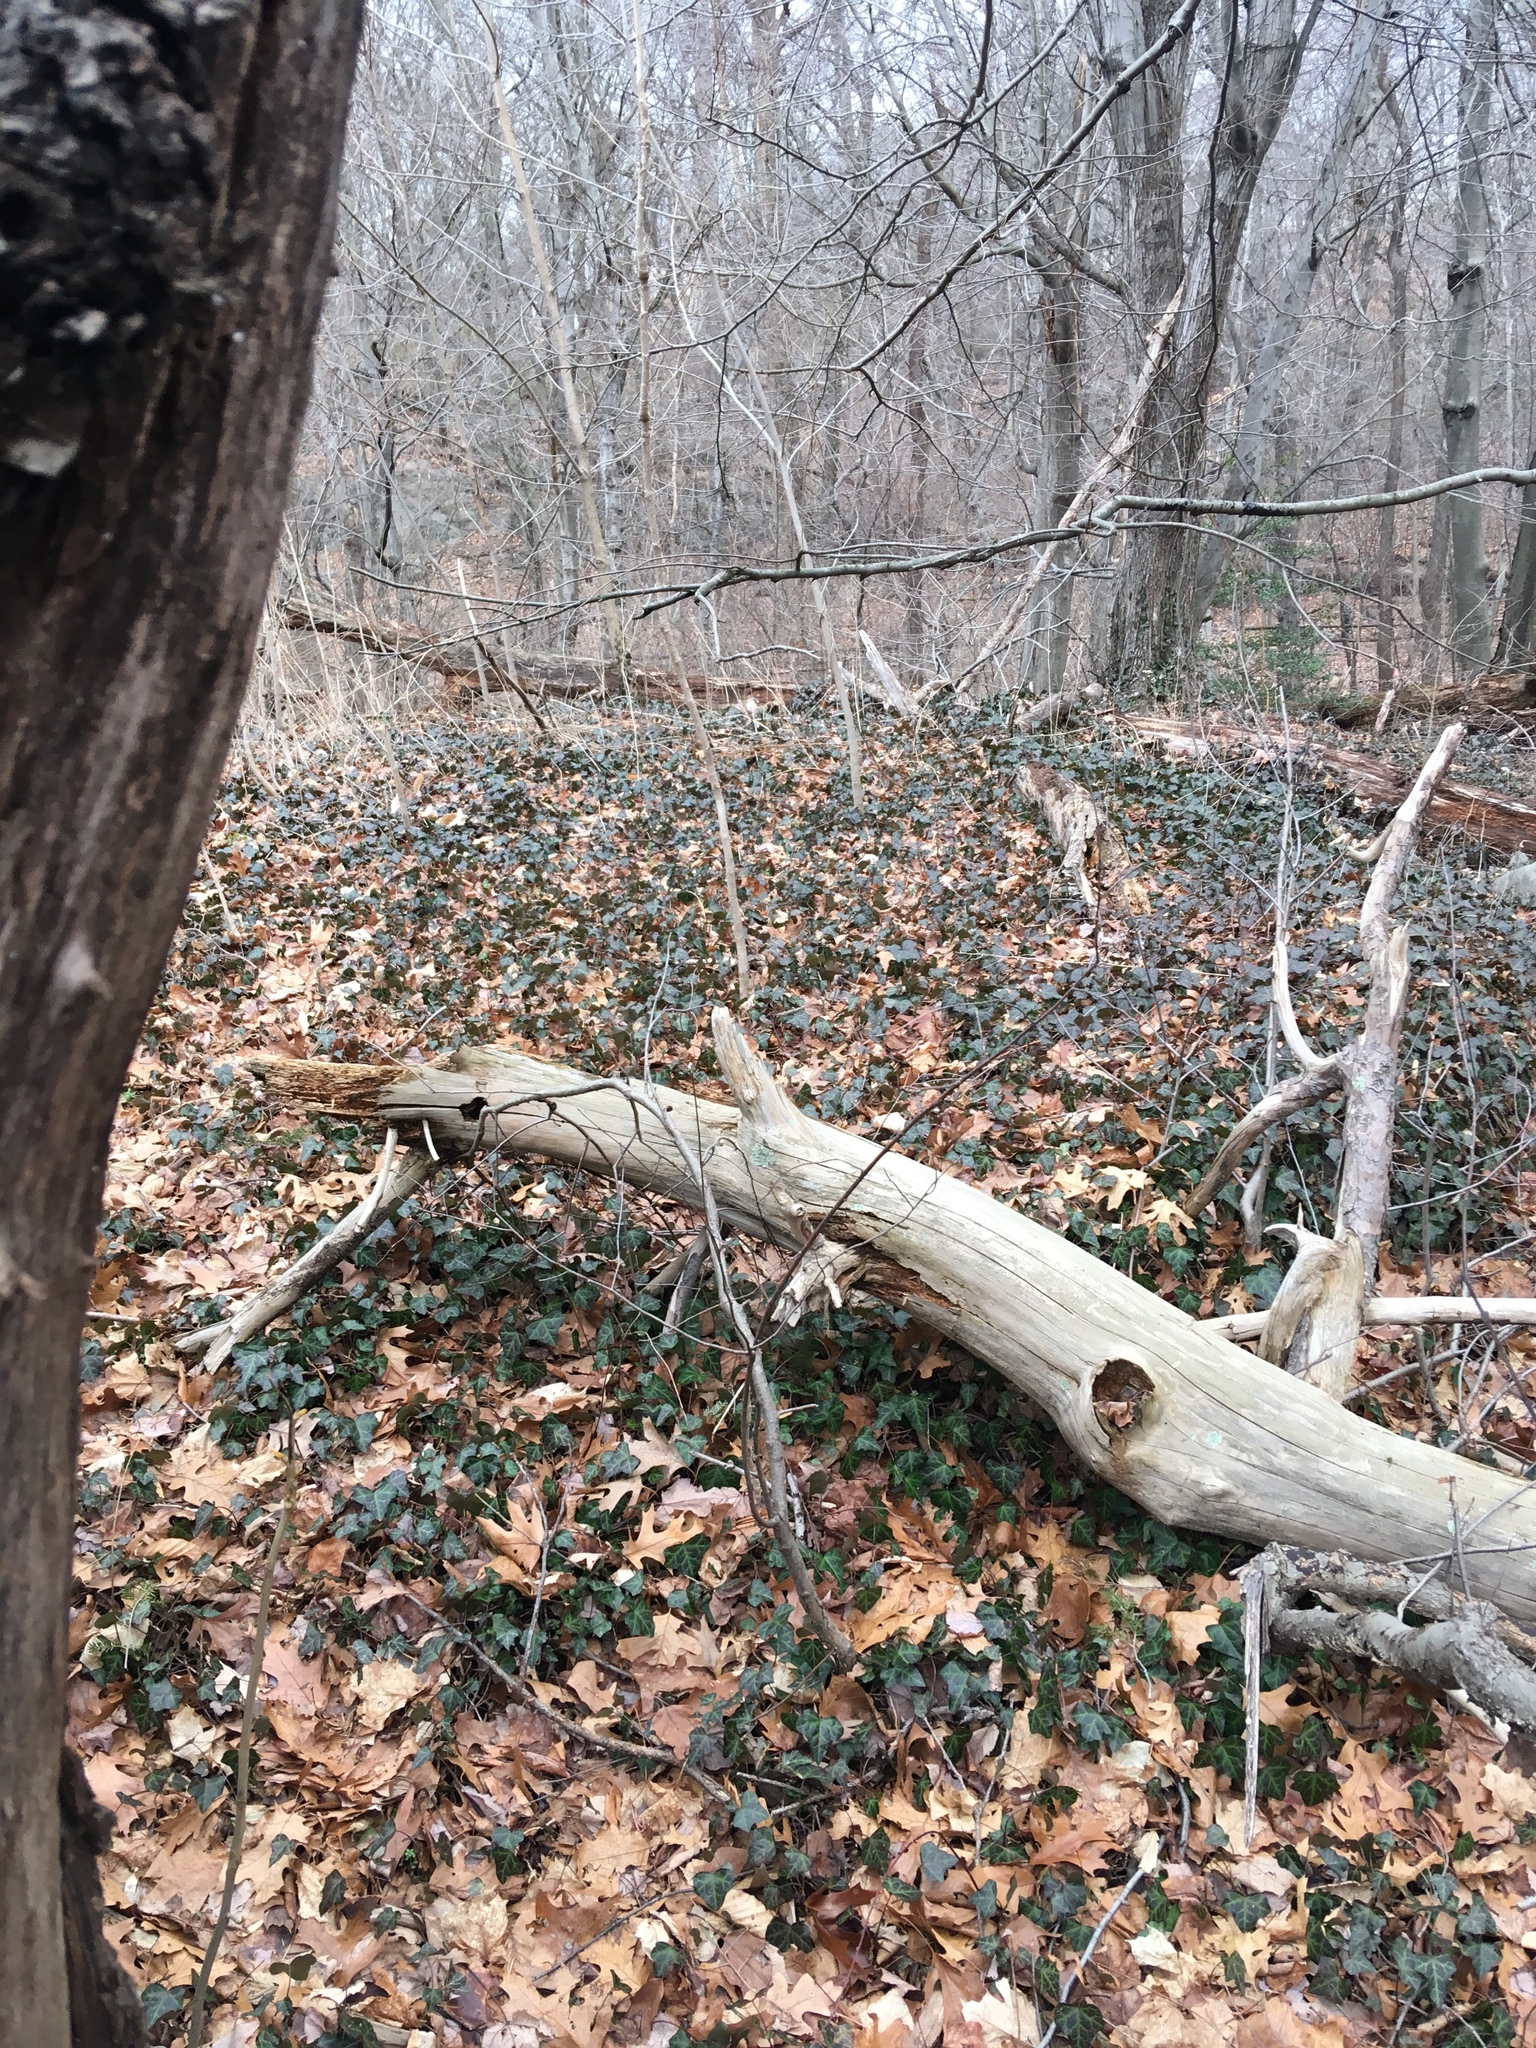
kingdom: Plantae
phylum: Tracheophyta
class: Magnoliopsida
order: Apiales
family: Araliaceae
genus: Hedera
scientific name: Hedera helix
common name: Ivy
